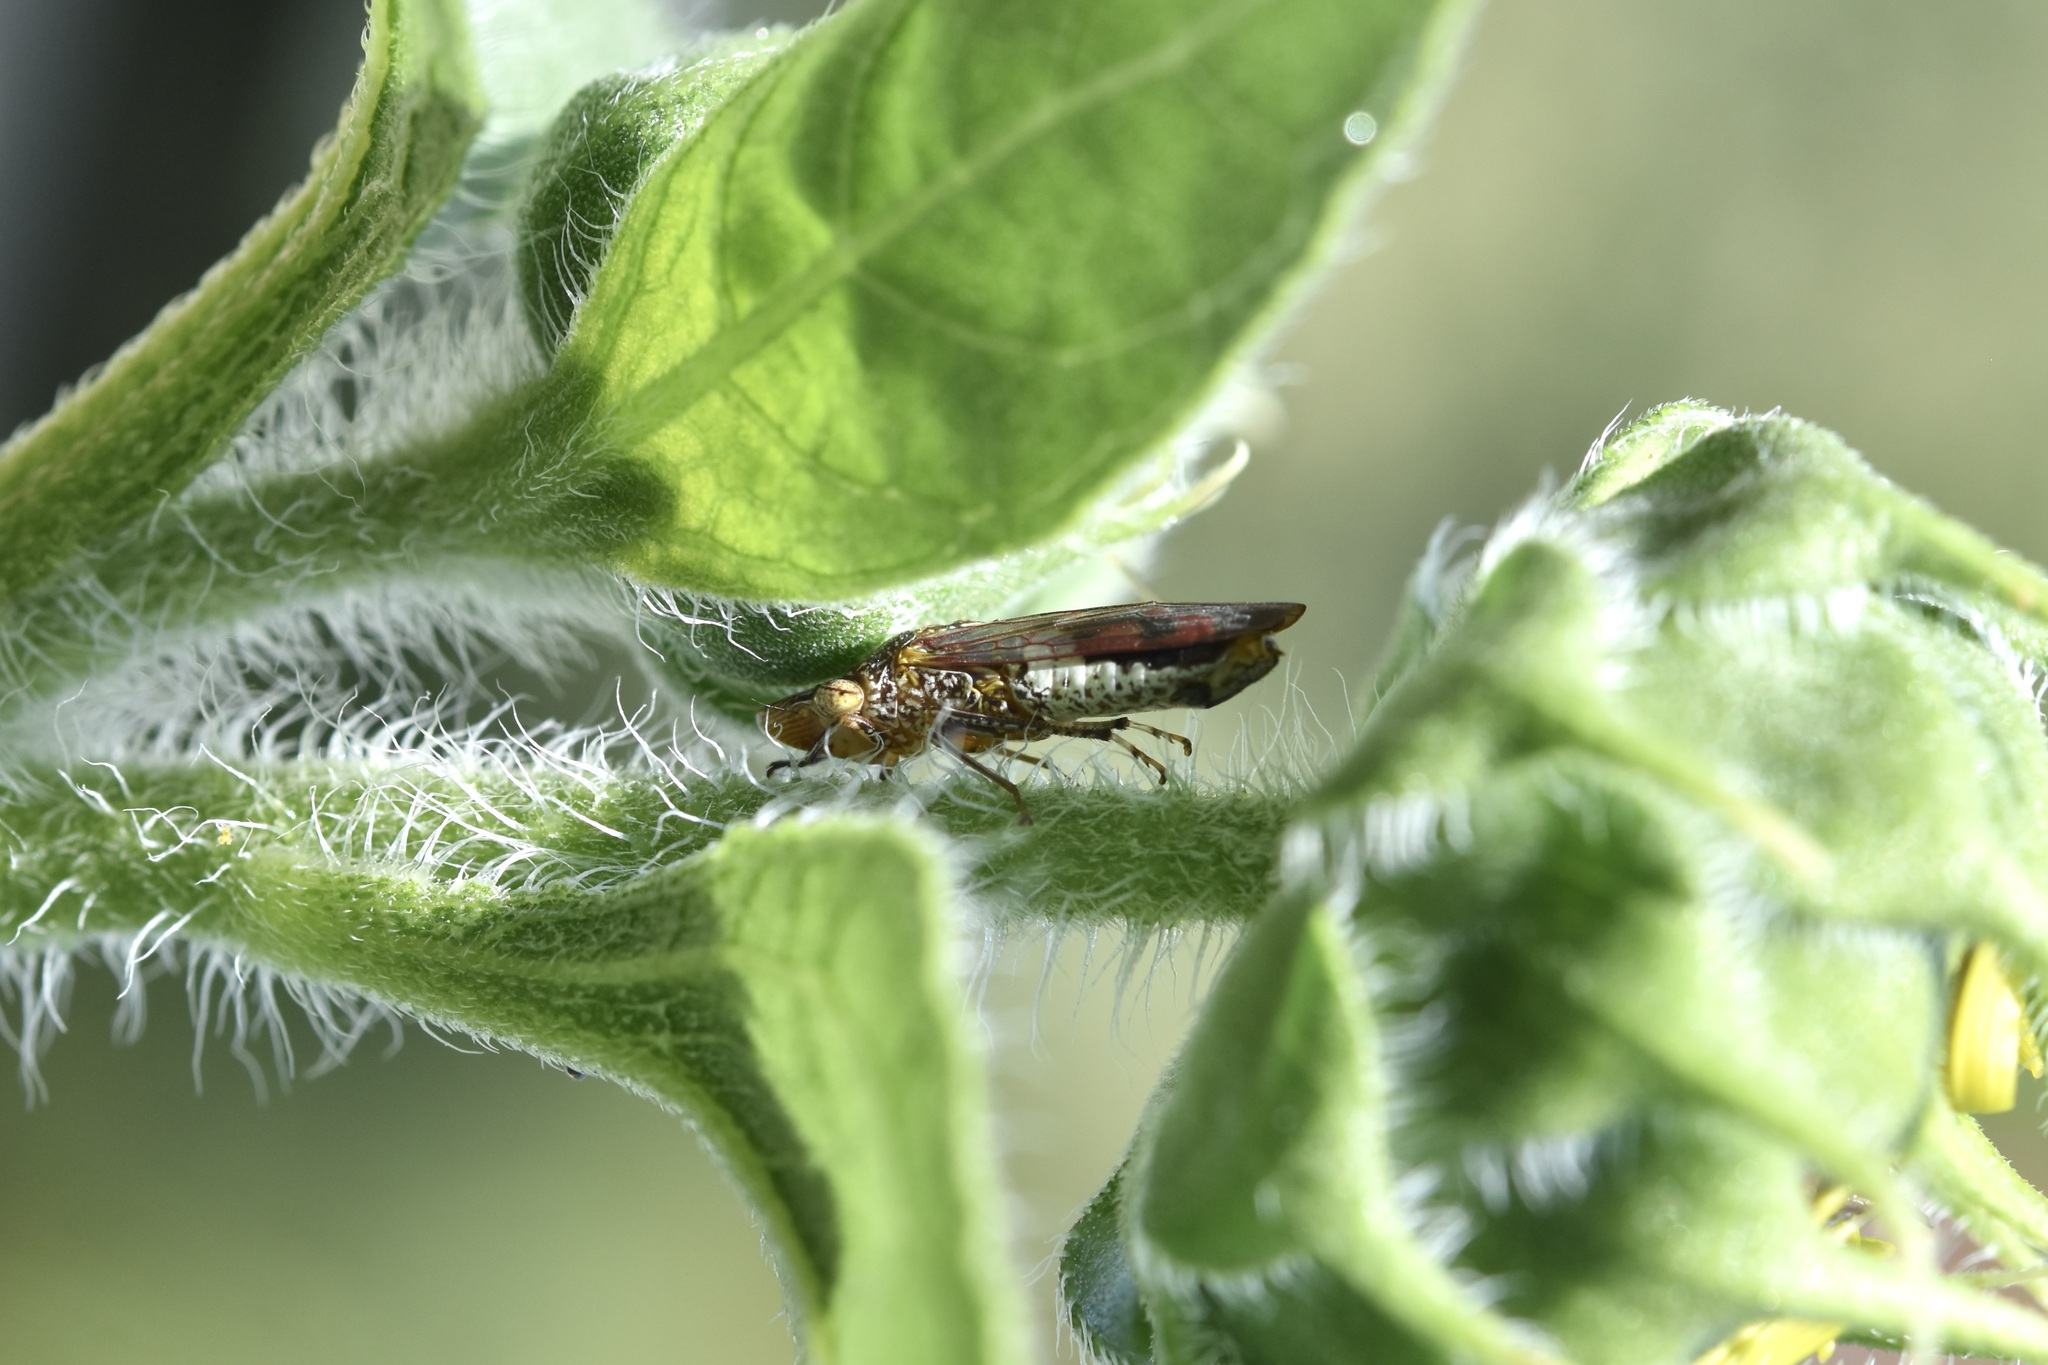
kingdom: Animalia
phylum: Arthropoda
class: Insecta
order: Hemiptera
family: Cicadellidae
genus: Homalodisca
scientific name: Homalodisca vitripennis
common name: Glassy-winged sharpshooter
